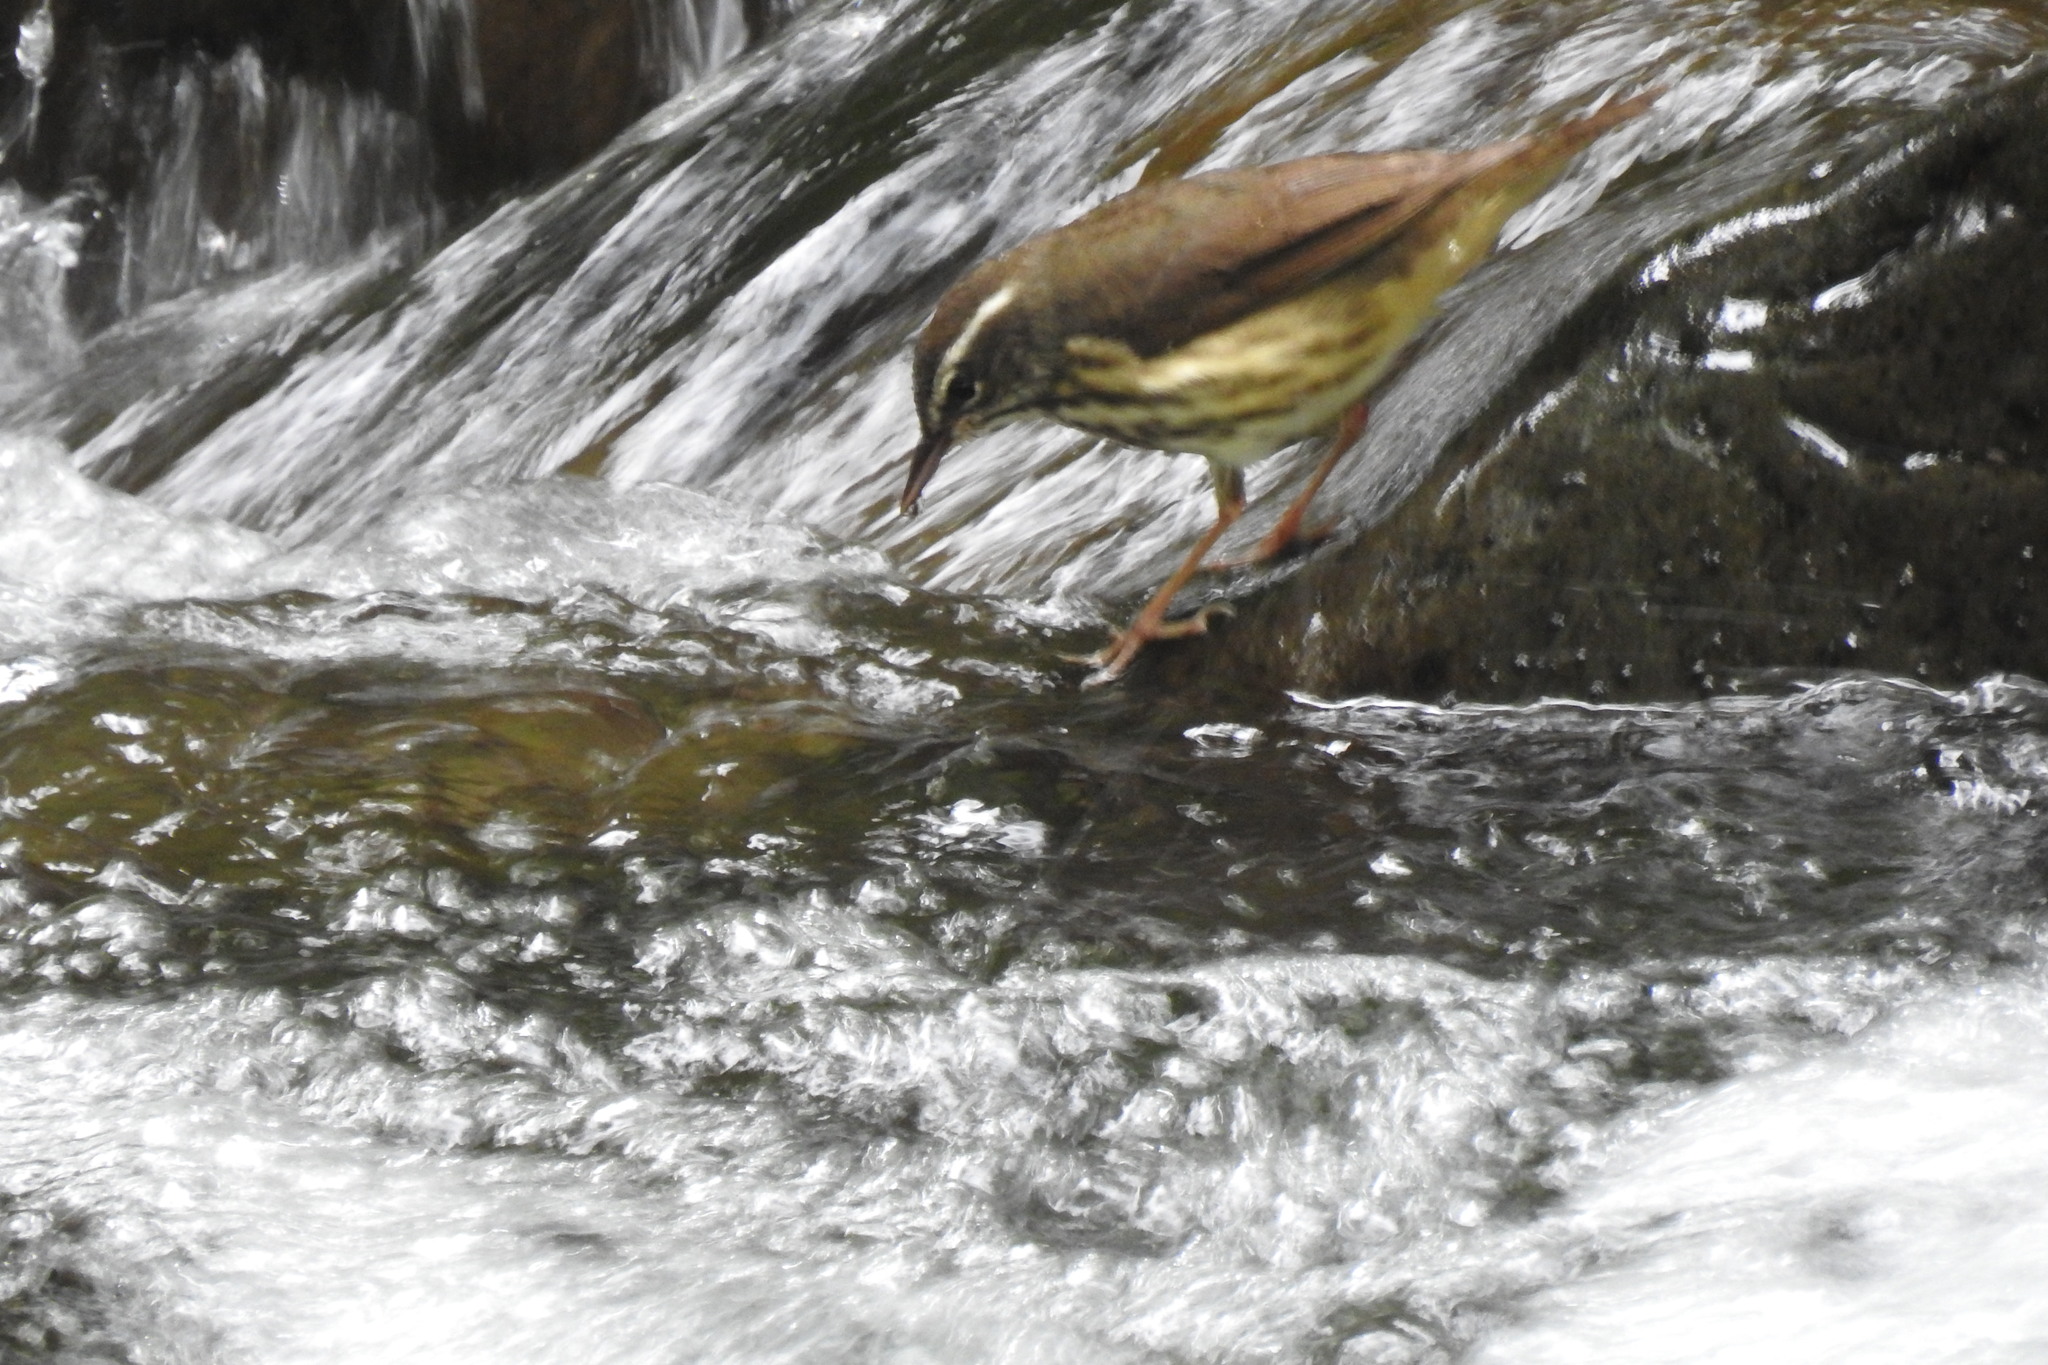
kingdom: Animalia
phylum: Chordata
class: Aves
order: Passeriformes
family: Parulidae
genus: Parkesia
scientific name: Parkesia motacilla
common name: Louisiana waterthrush
